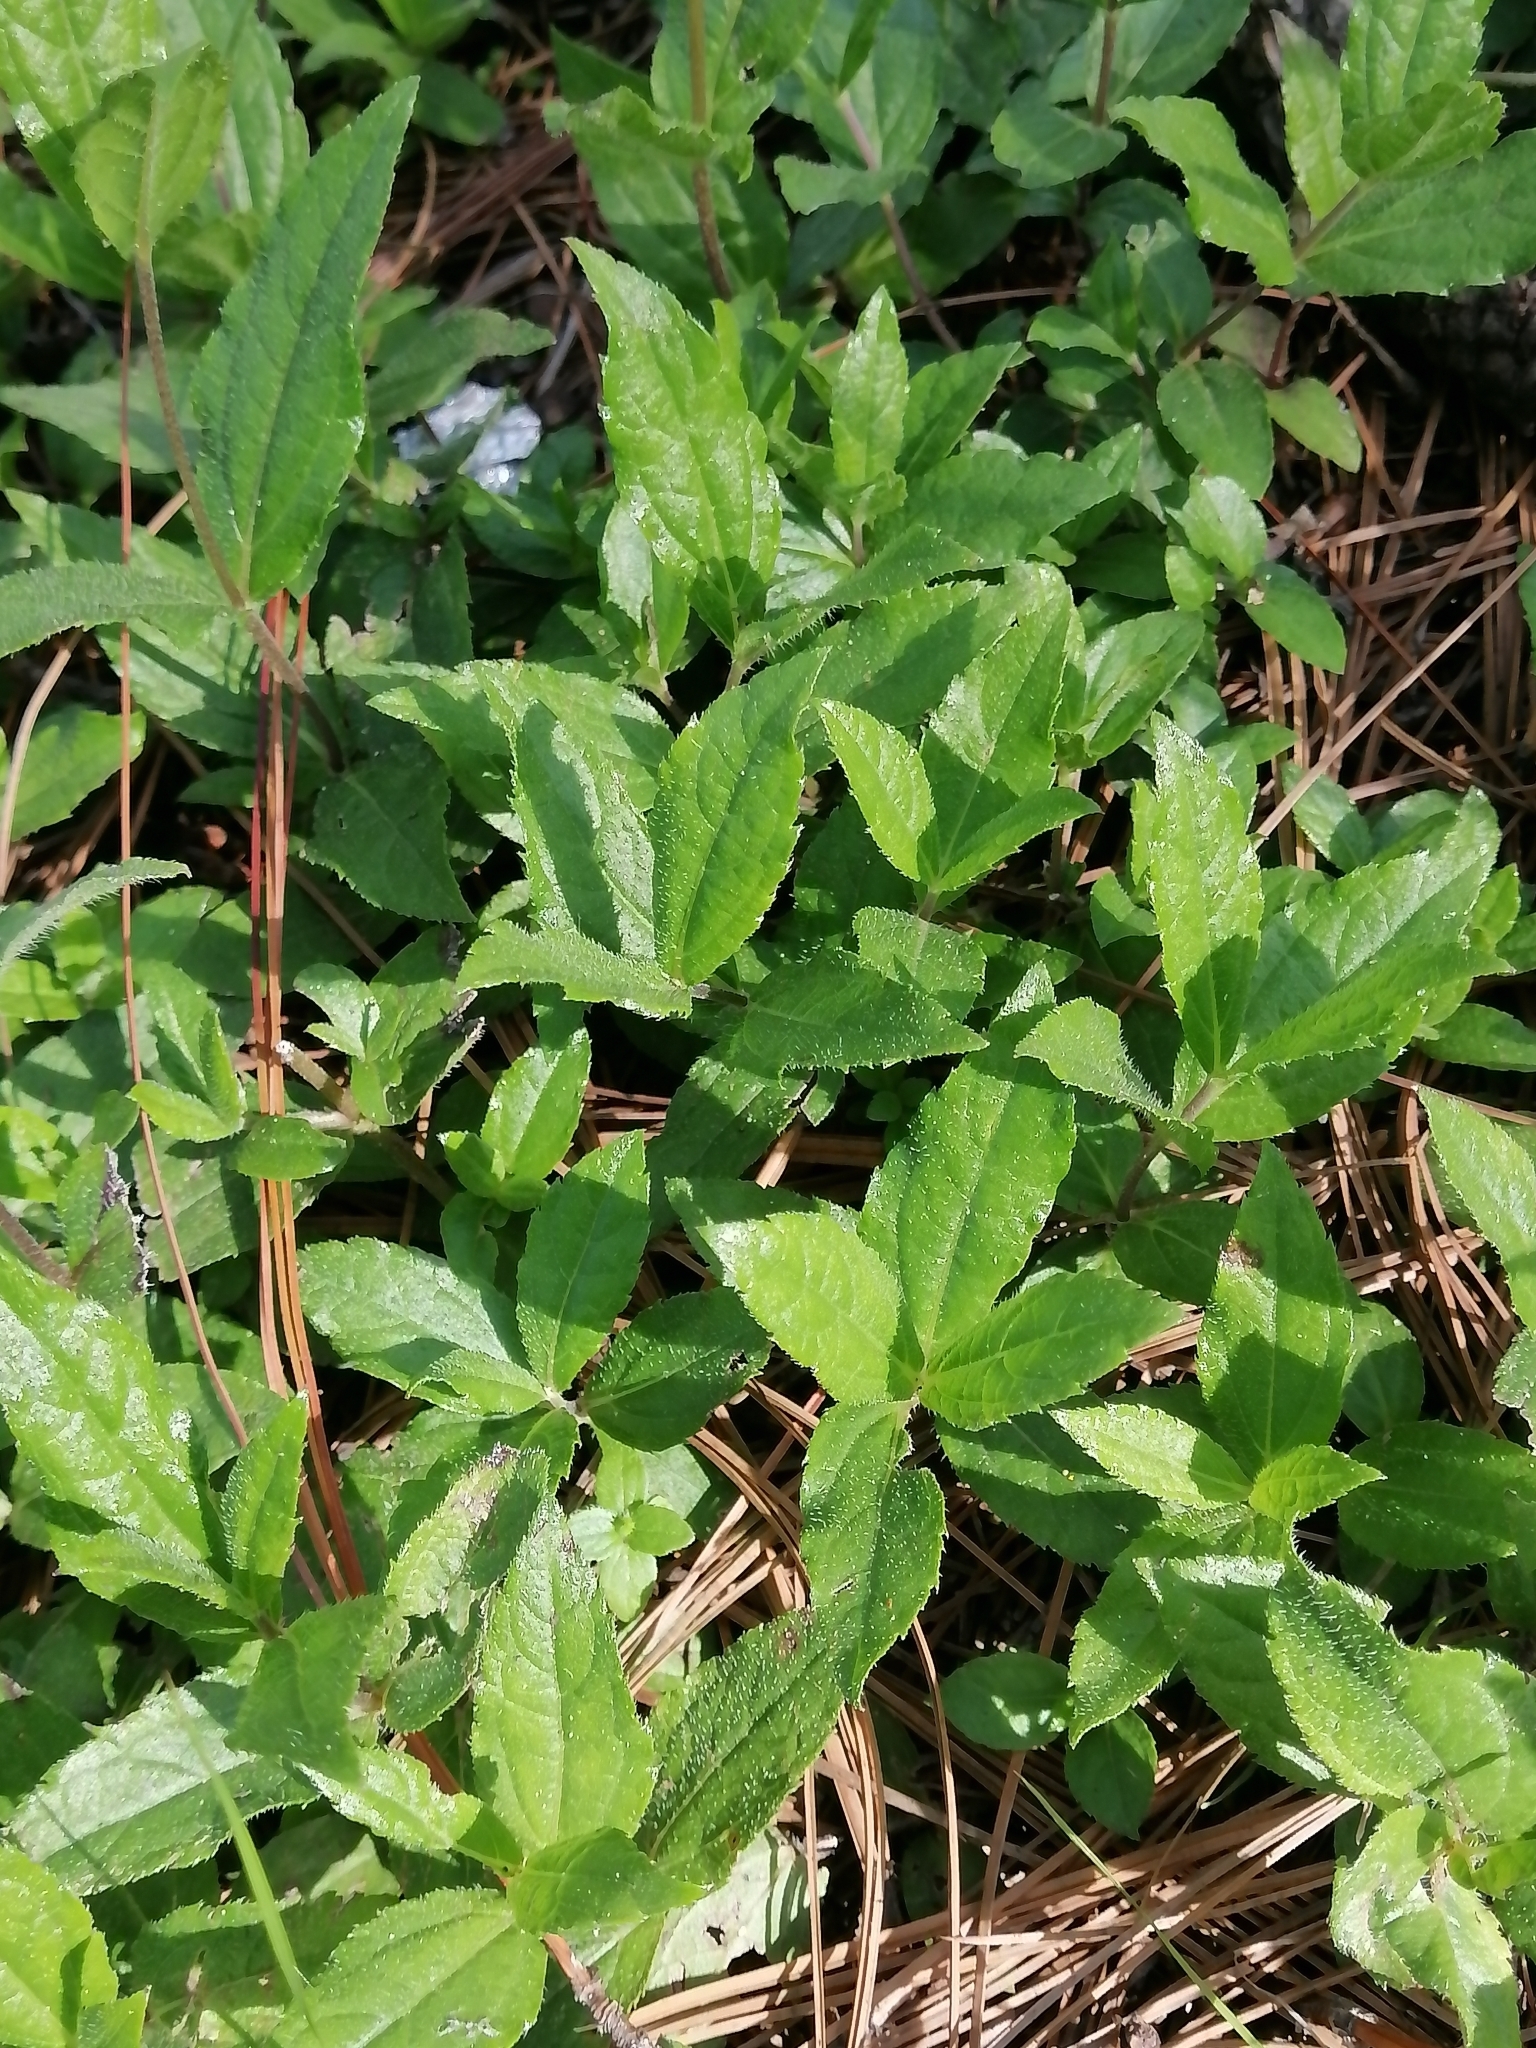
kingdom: Plantae
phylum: Tracheophyta
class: Magnoliopsida
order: Asterales
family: Asteraceae
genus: Perymenium
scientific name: Perymenium buphthalmoides
